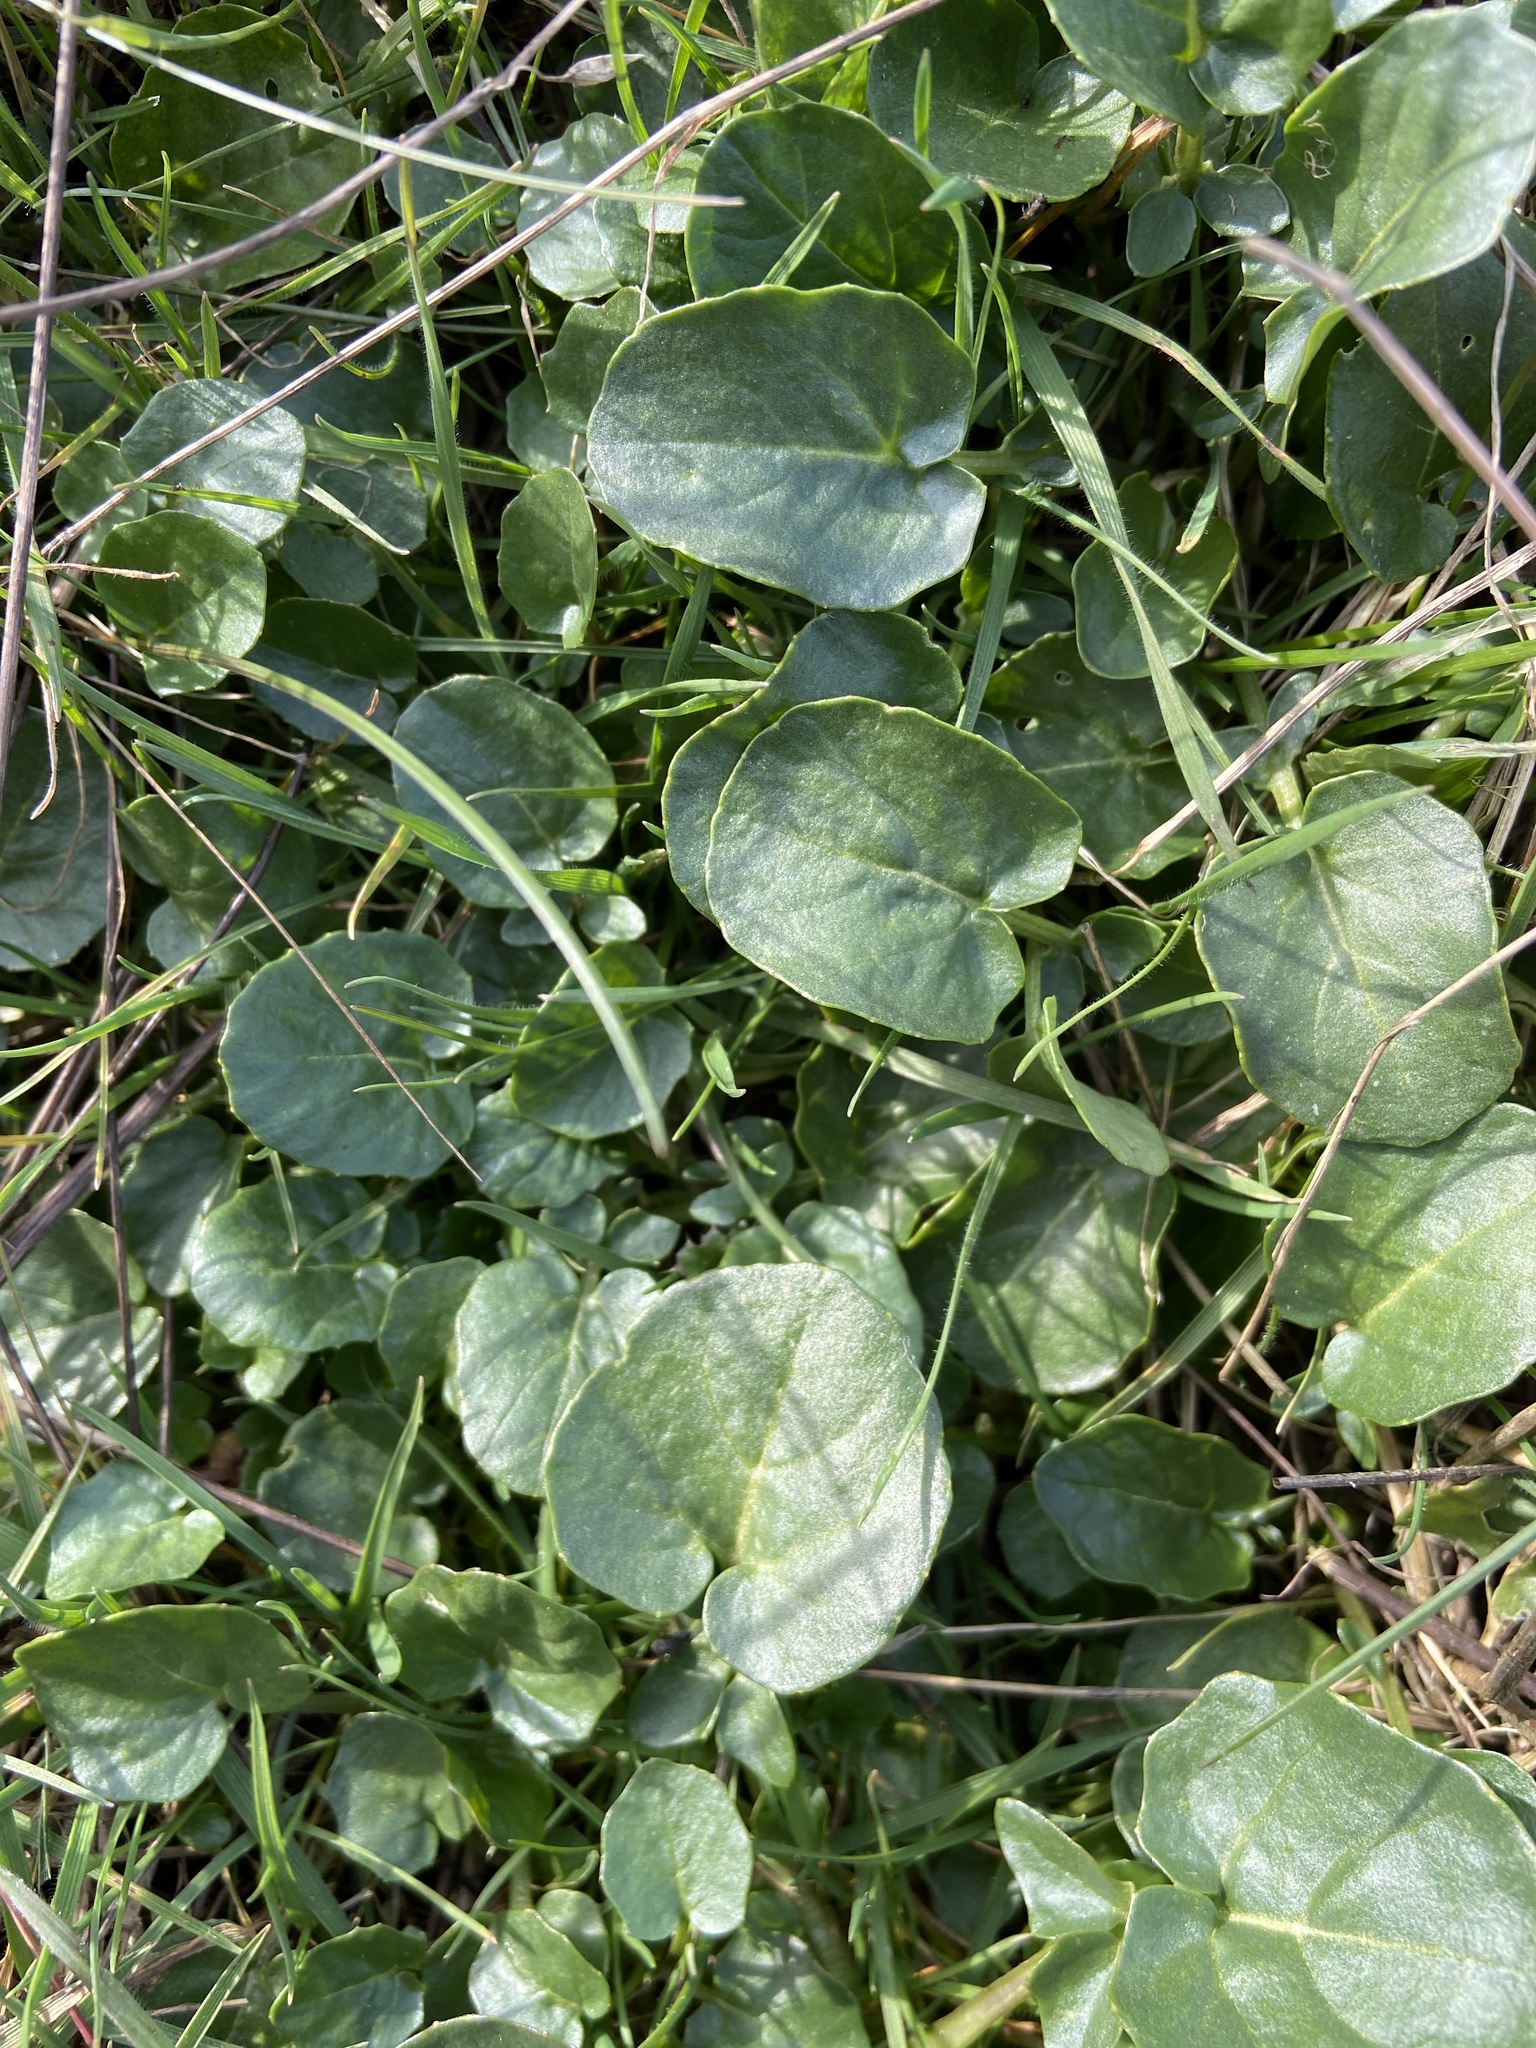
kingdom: Plantae
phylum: Tracheophyta
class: Magnoliopsida
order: Ranunculales
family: Ranunculaceae
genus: Ficaria
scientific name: Ficaria verna
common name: Lesser celandine
